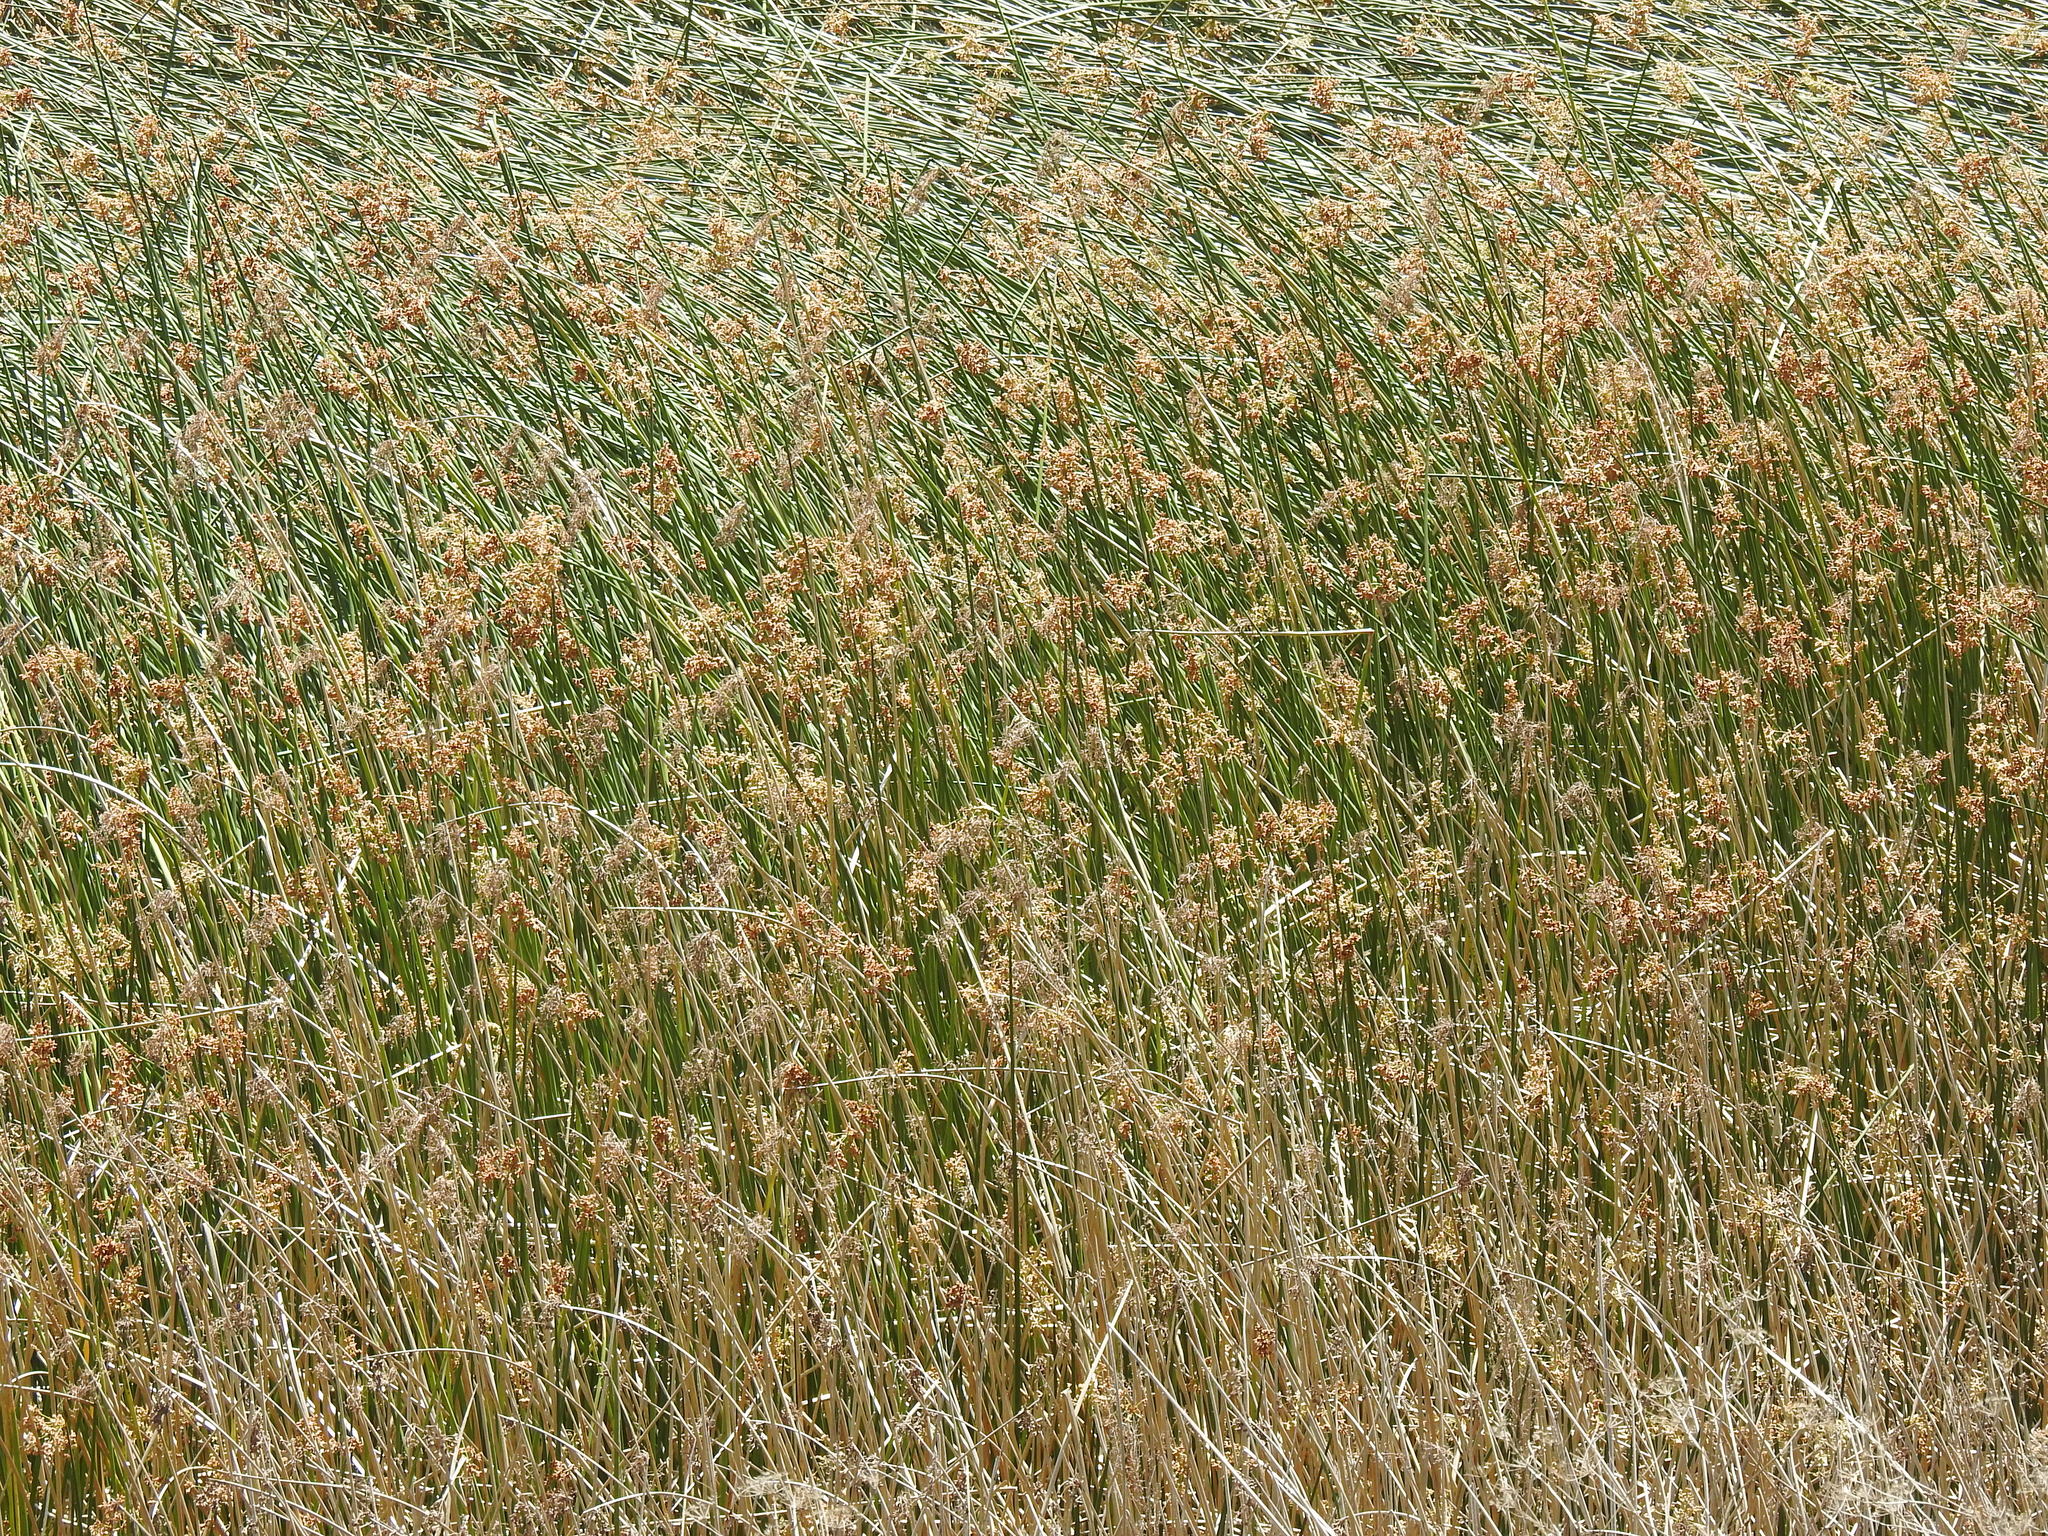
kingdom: Plantae
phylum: Tracheophyta
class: Liliopsida
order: Poales
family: Cyperaceae
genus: Schoenoplectus
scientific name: Schoenoplectus californicus
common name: California bulrush
